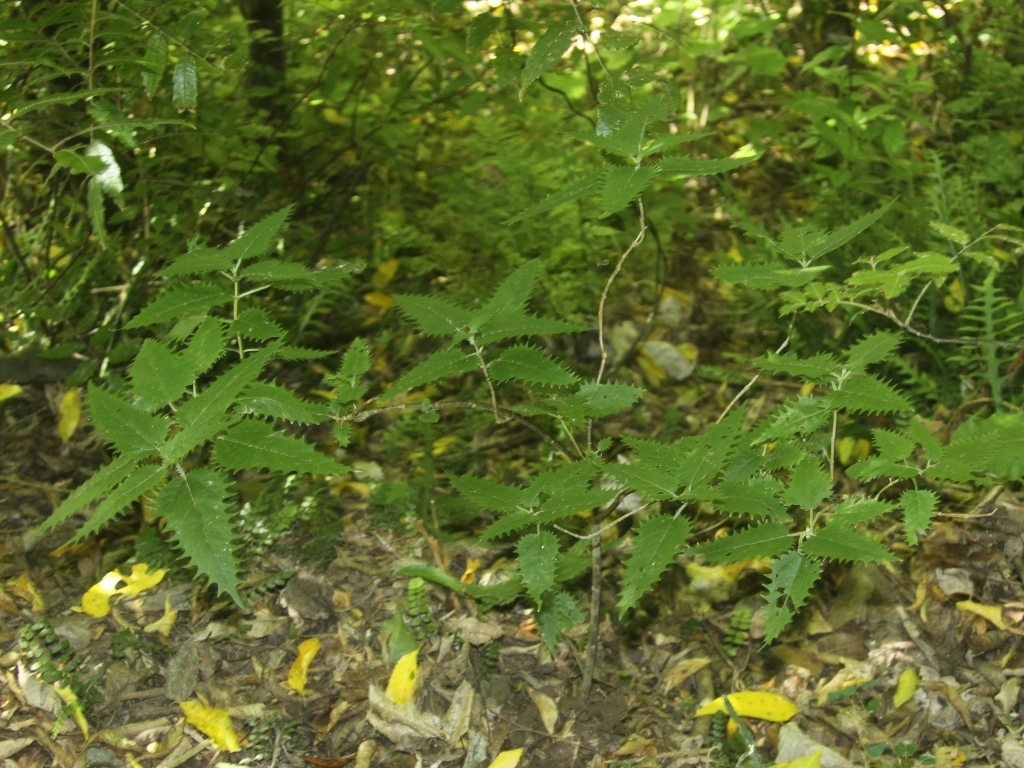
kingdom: Plantae
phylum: Tracheophyta
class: Magnoliopsida
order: Rosales
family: Urticaceae
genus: Urtica
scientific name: Urtica ferox
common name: Tree nettle
